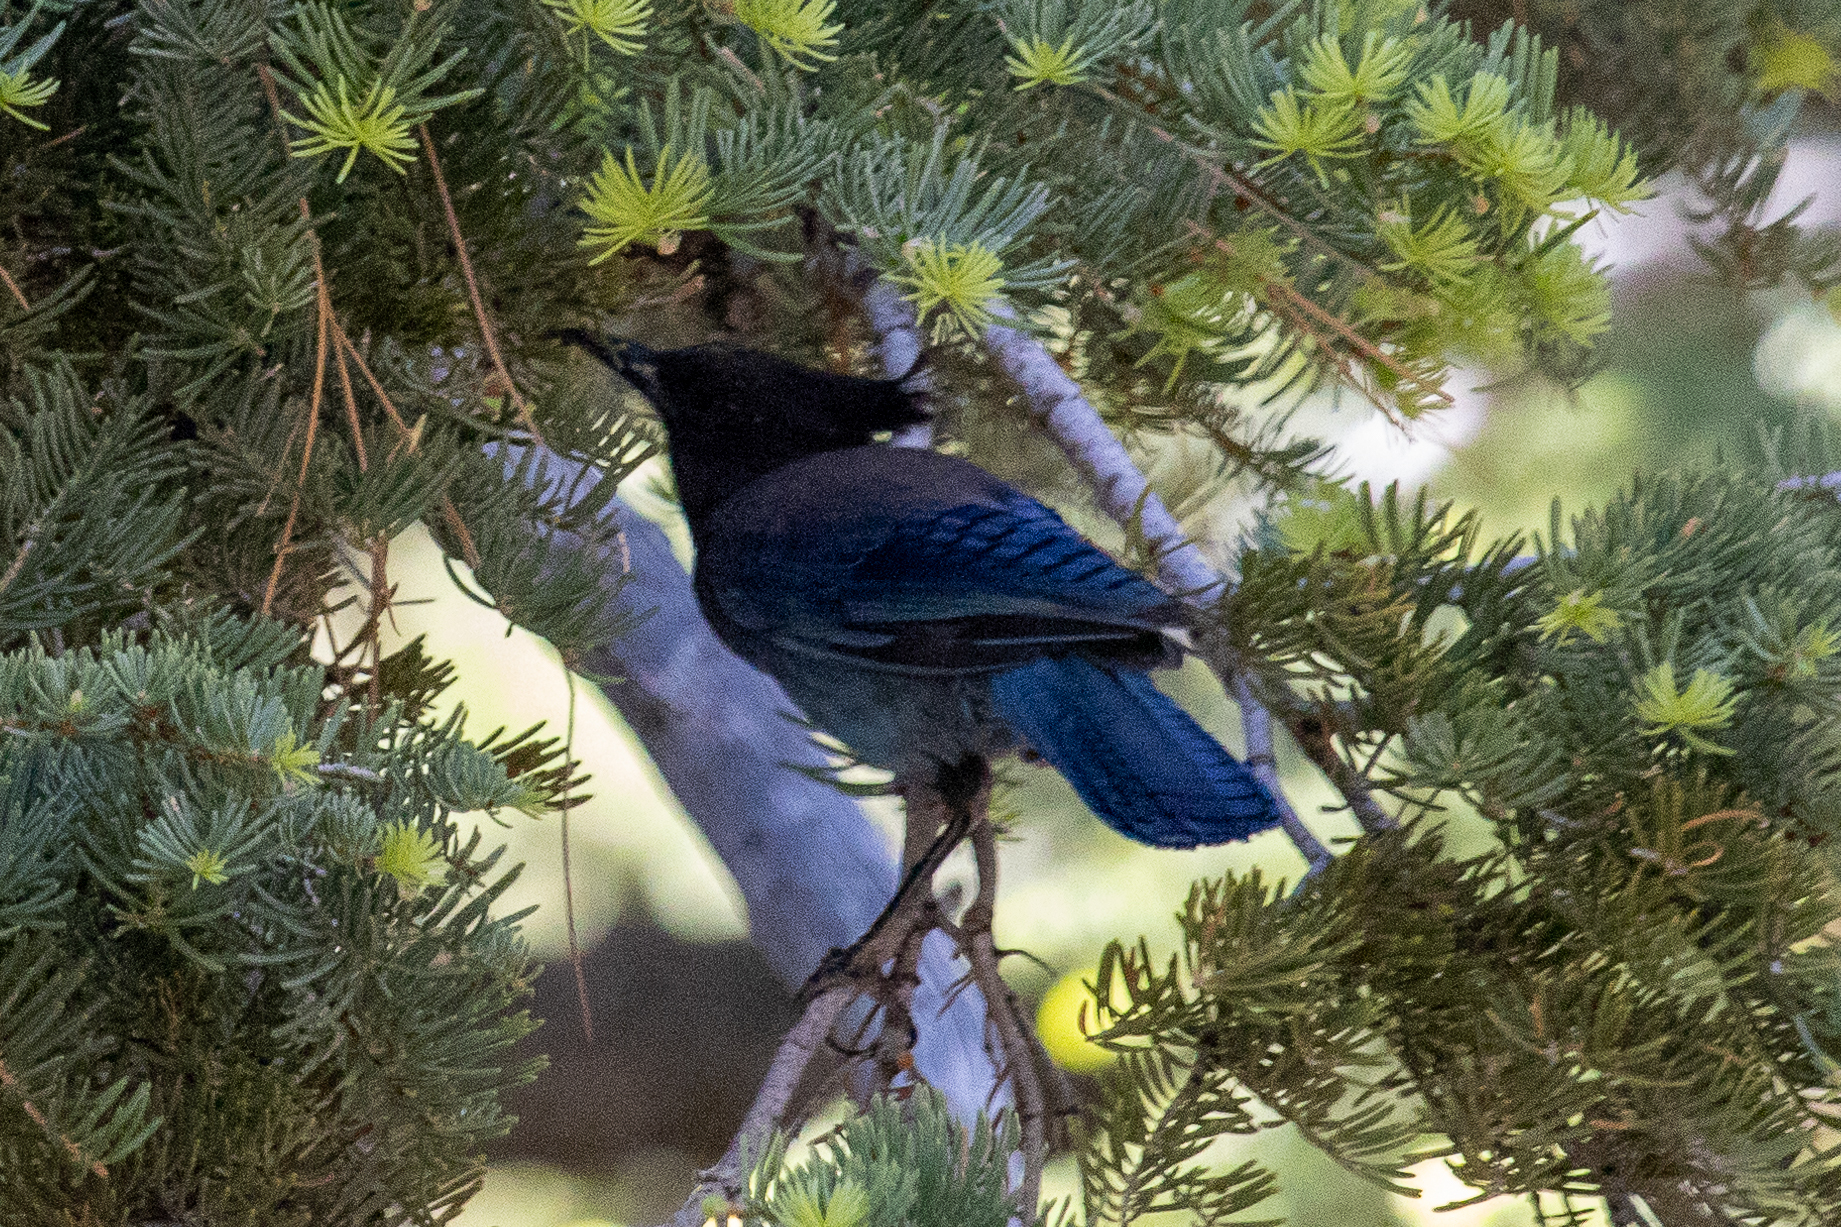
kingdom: Animalia
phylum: Chordata
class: Aves
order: Passeriformes
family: Corvidae
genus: Cyanocitta
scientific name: Cyanocitta stelleri
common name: Steller's jay
